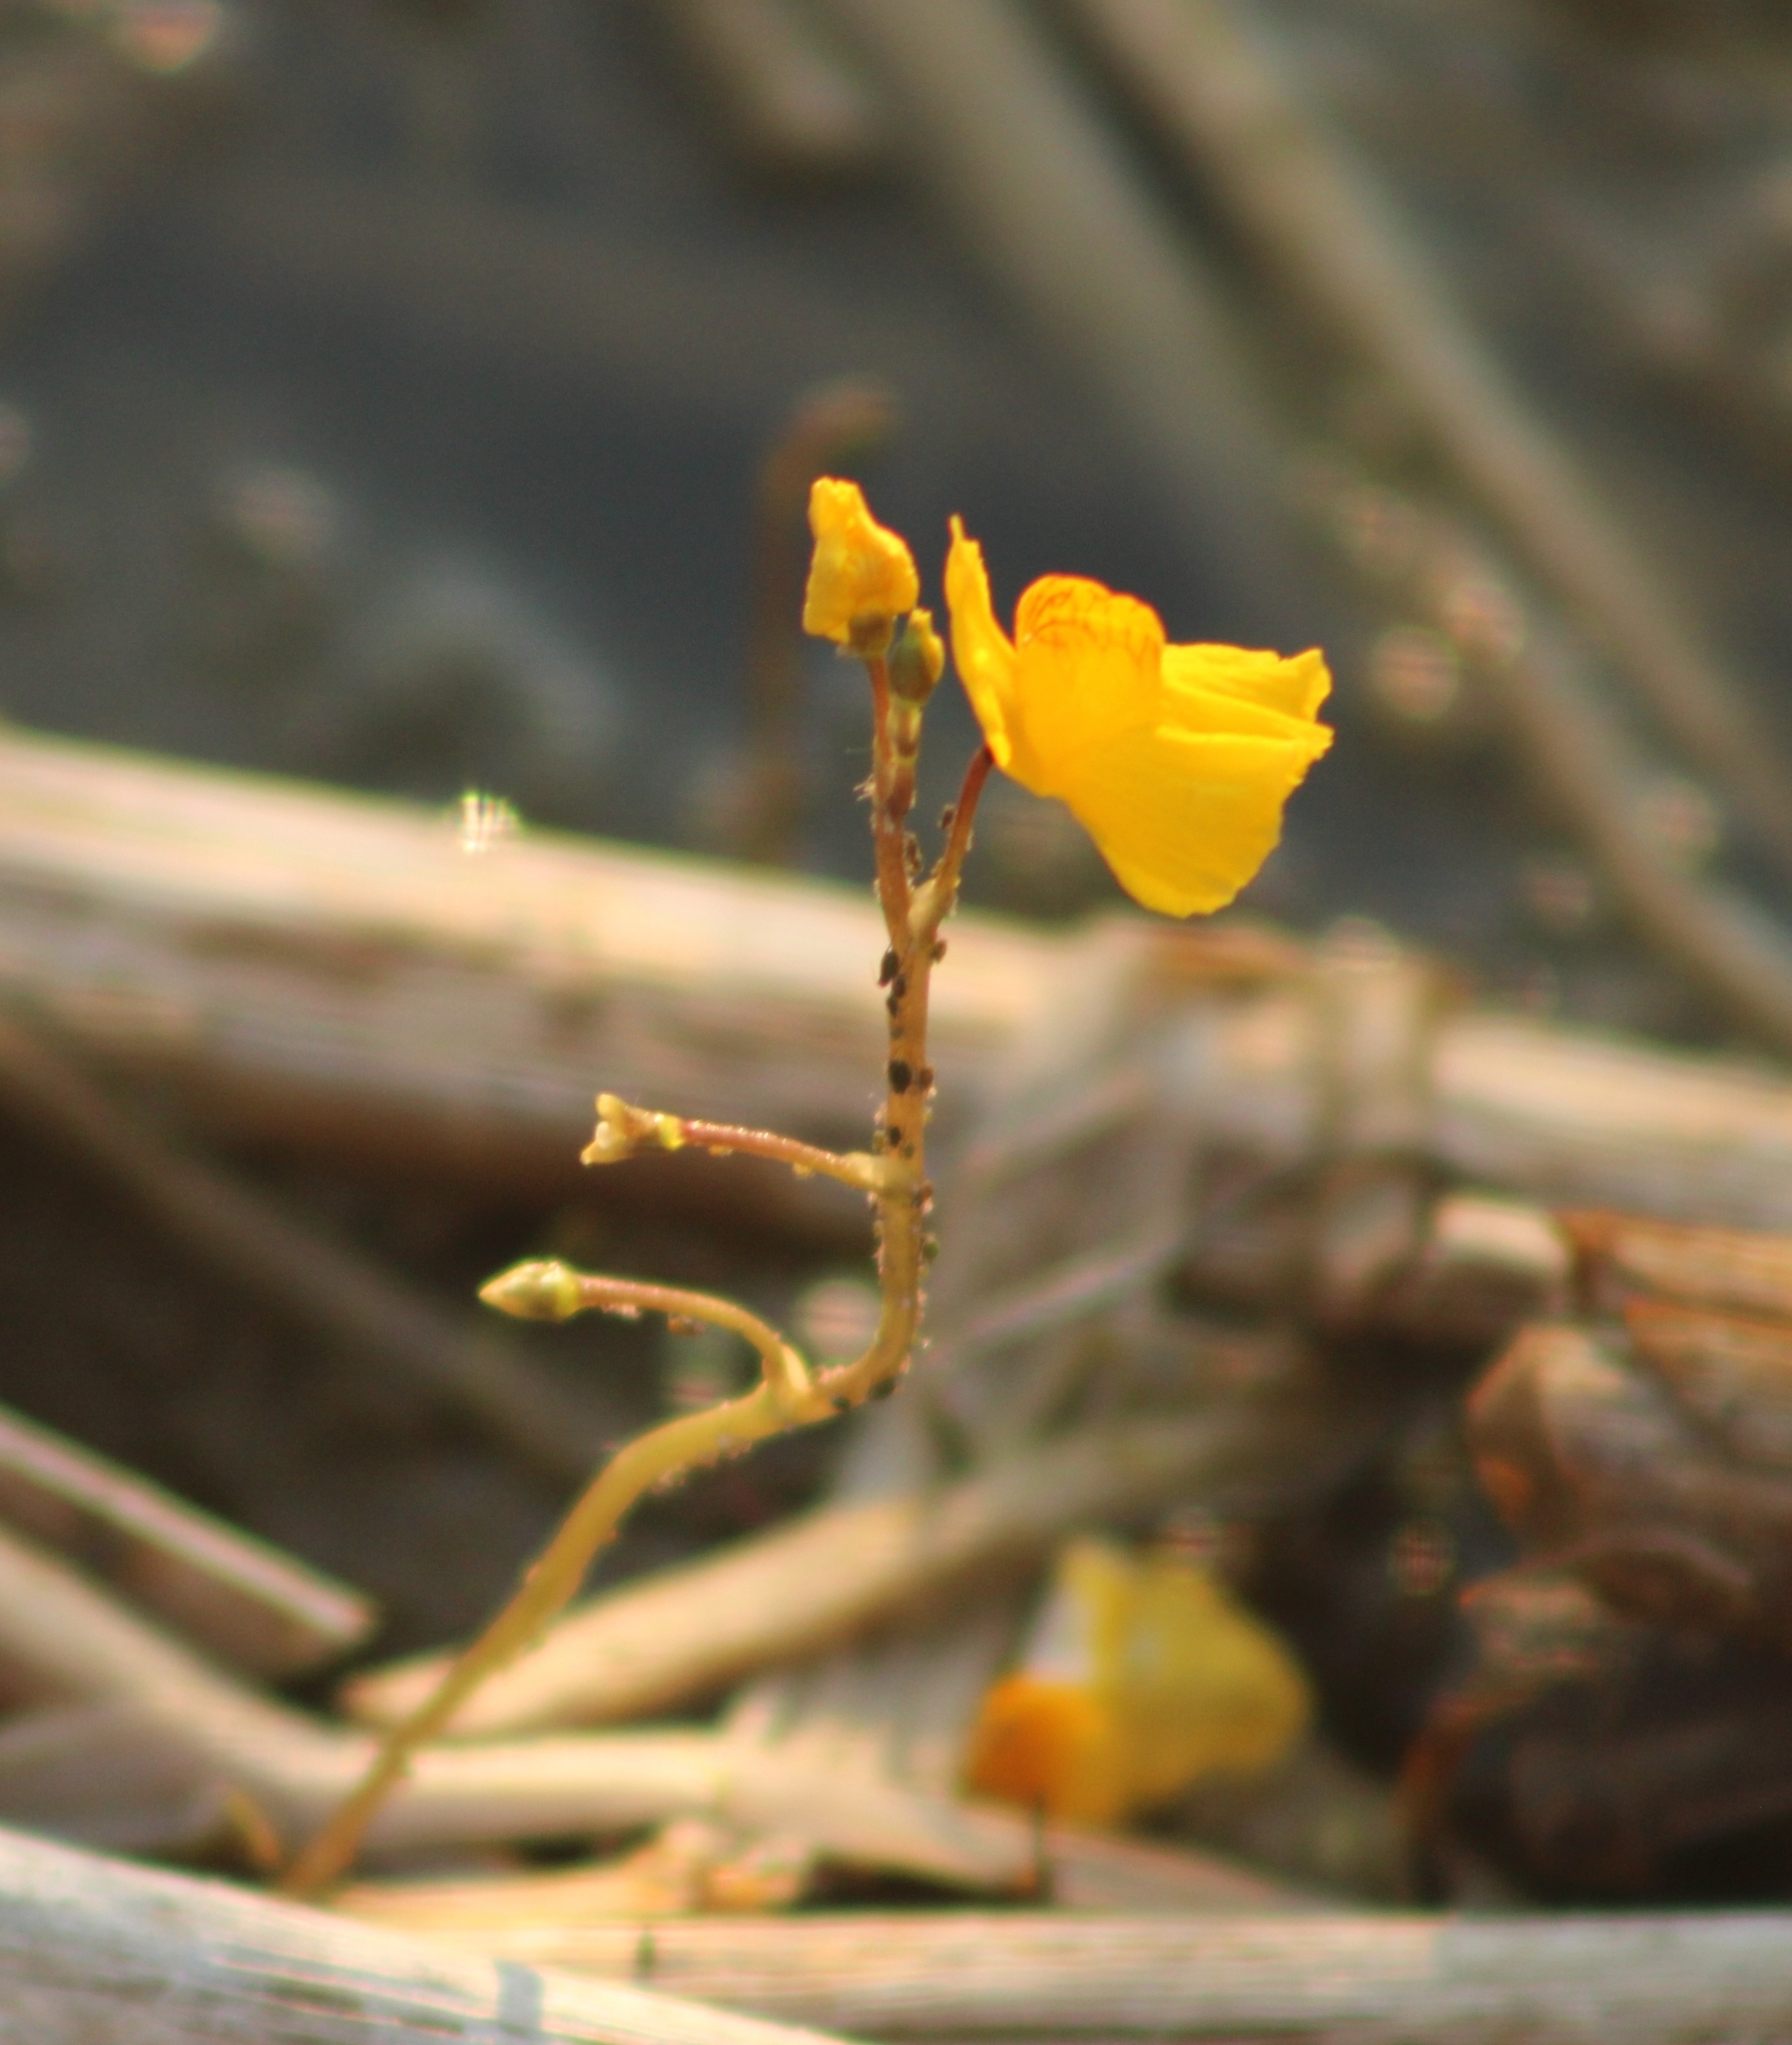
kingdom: Plantae
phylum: Tracheophyta
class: Magnoliopsida
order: Lamiales
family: Lentibulariaceae
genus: Utricularia
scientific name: Utricularia macrorhiza
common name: Common bladderwort
